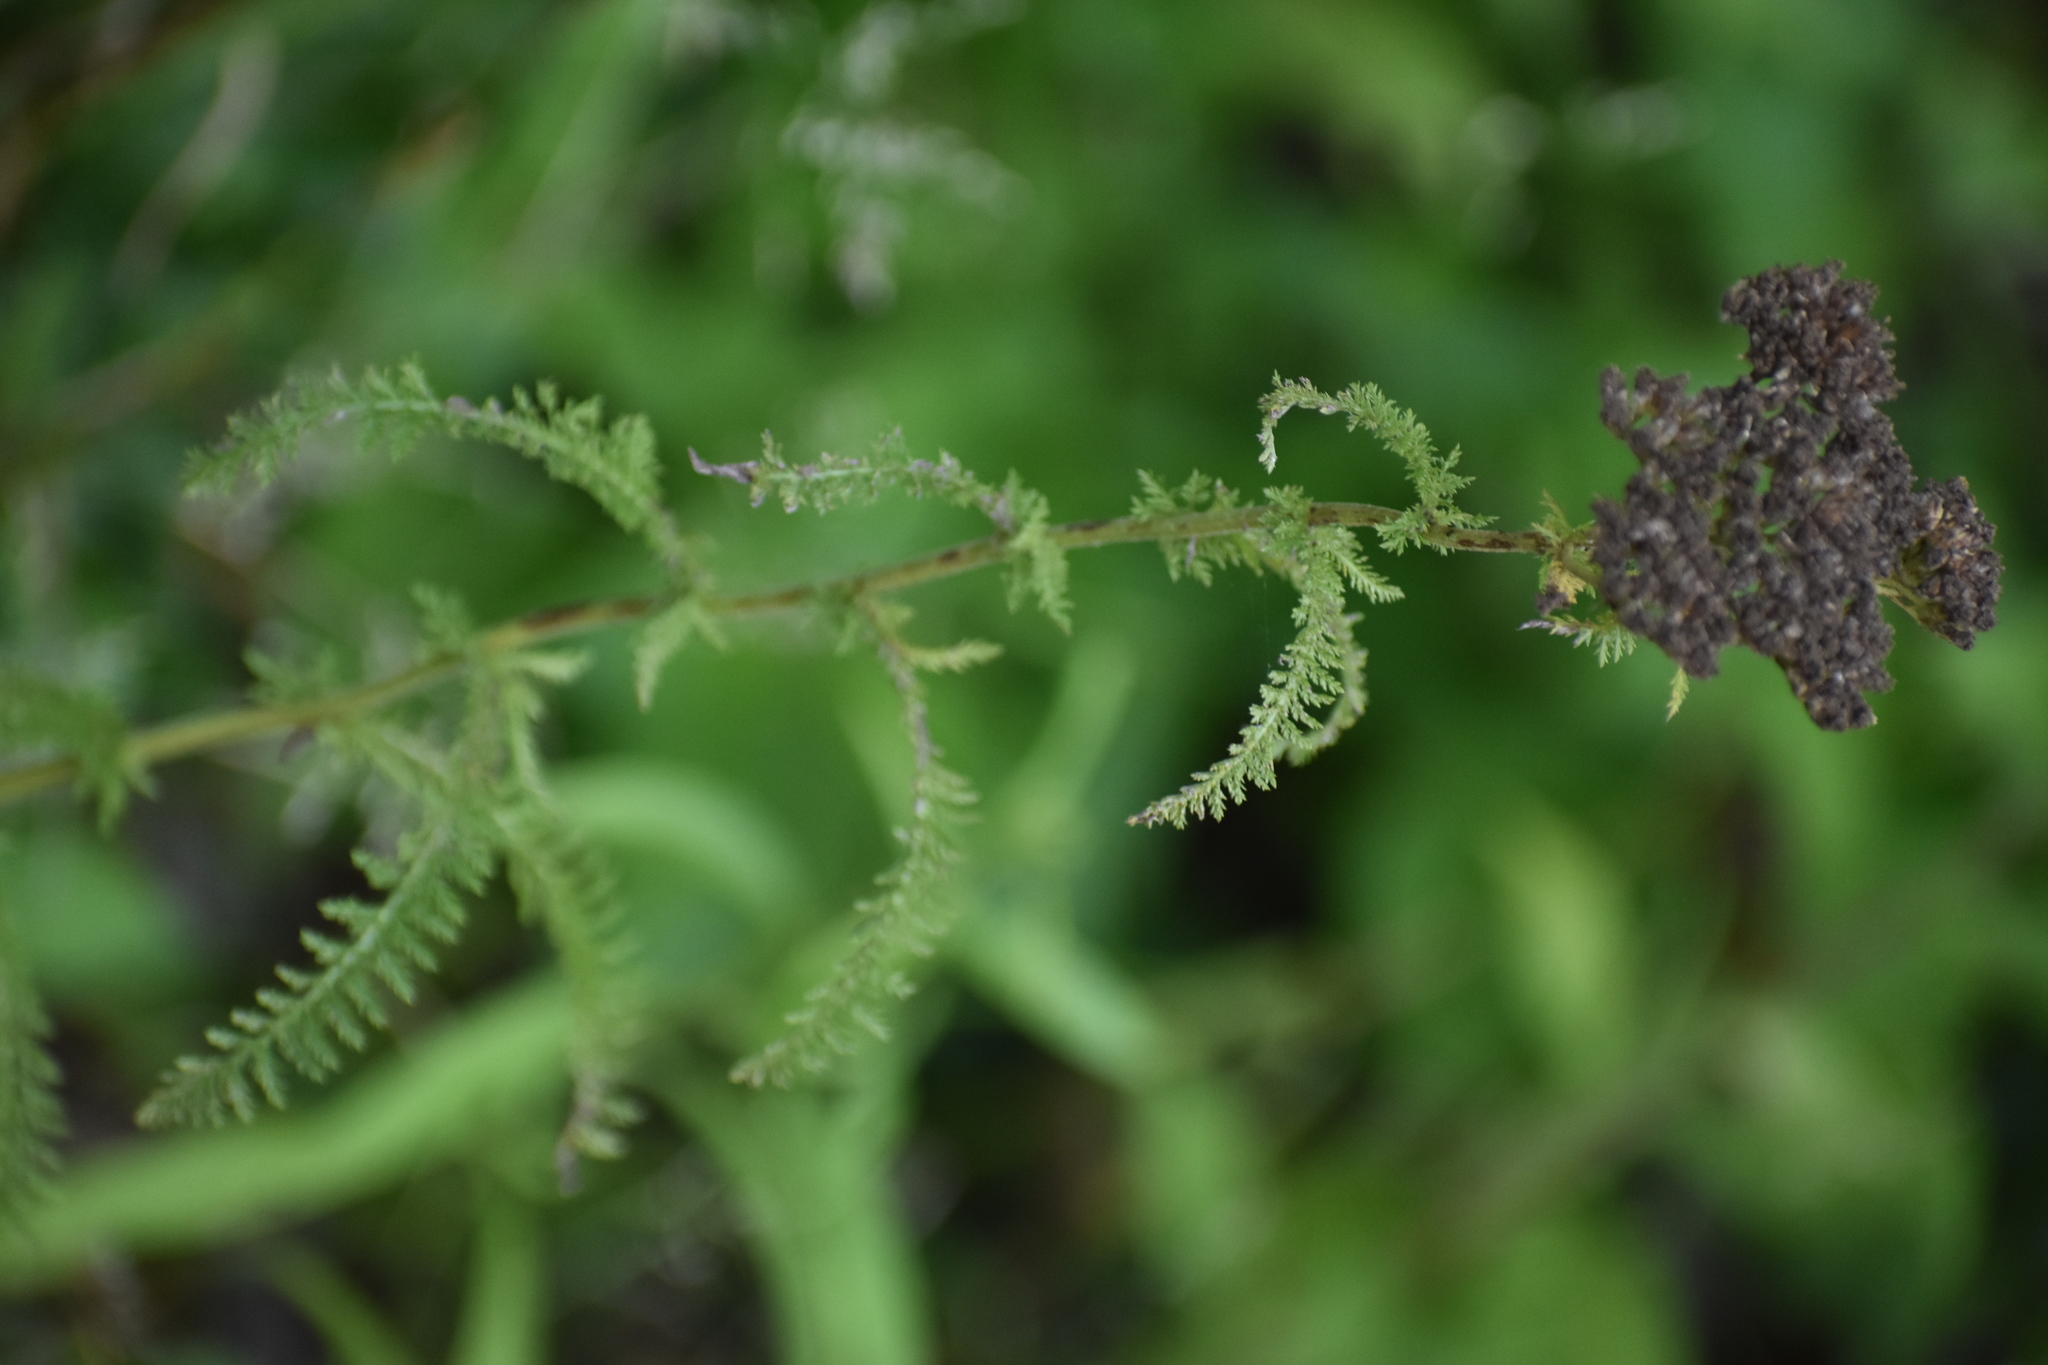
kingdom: Plantae
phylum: Tracheophyta
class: Magnoliopsida
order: Asterales
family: Asteraceae
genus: Achillea
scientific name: Achillea millefolium
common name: Yarrow
